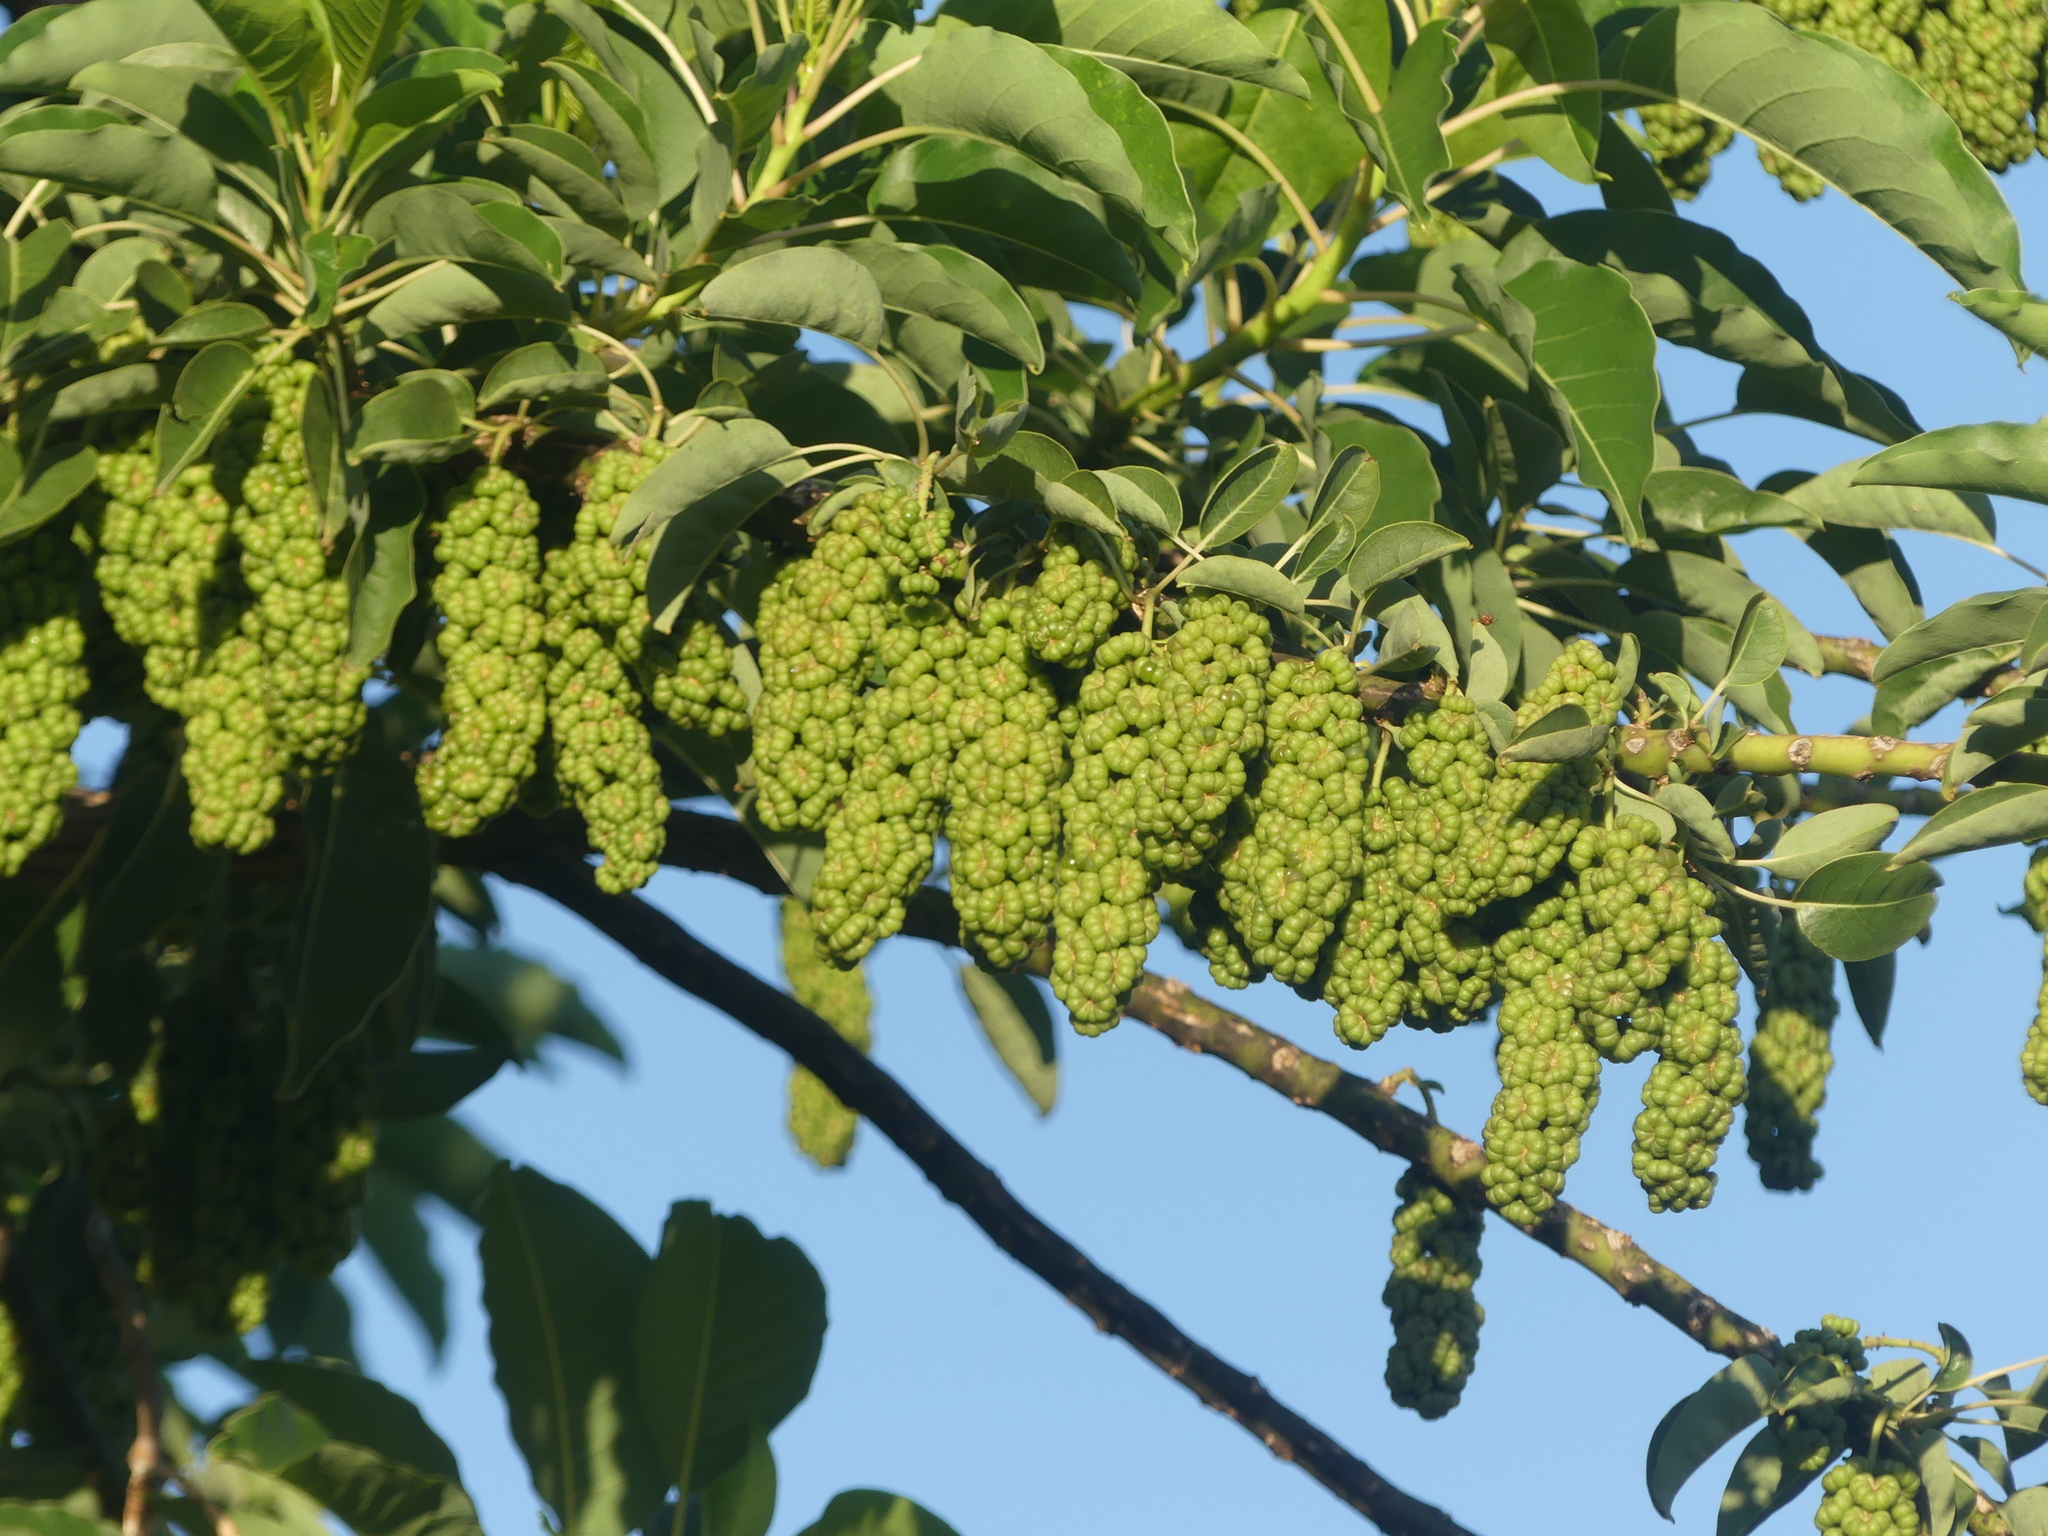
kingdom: Plantae
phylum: Tracheophyta
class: Magnoliopsida
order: Caryophyllales
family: Phytolaccaceae
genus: Phytolacca
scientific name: Phytolacca dioica
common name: Pokeweed
